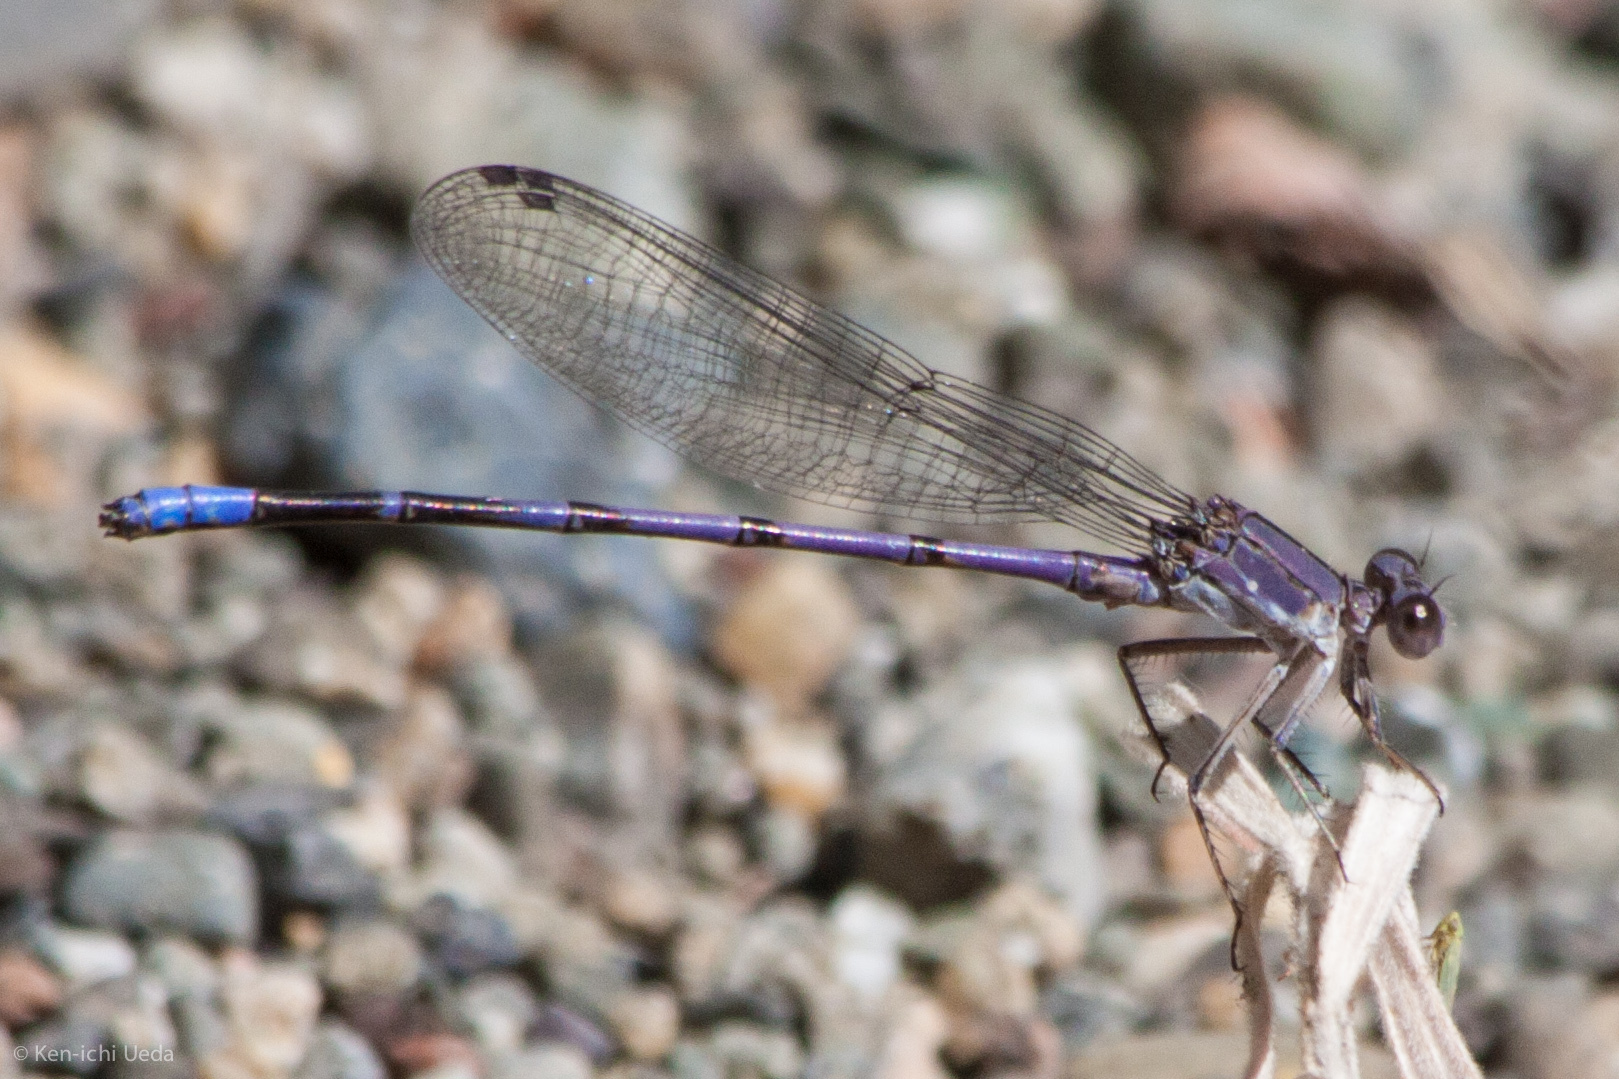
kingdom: Animalia
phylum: Arthropoda
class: Insecta
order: Odonata
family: Coenagrionidae
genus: Argia
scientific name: Argia emma
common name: Emma's dancer
